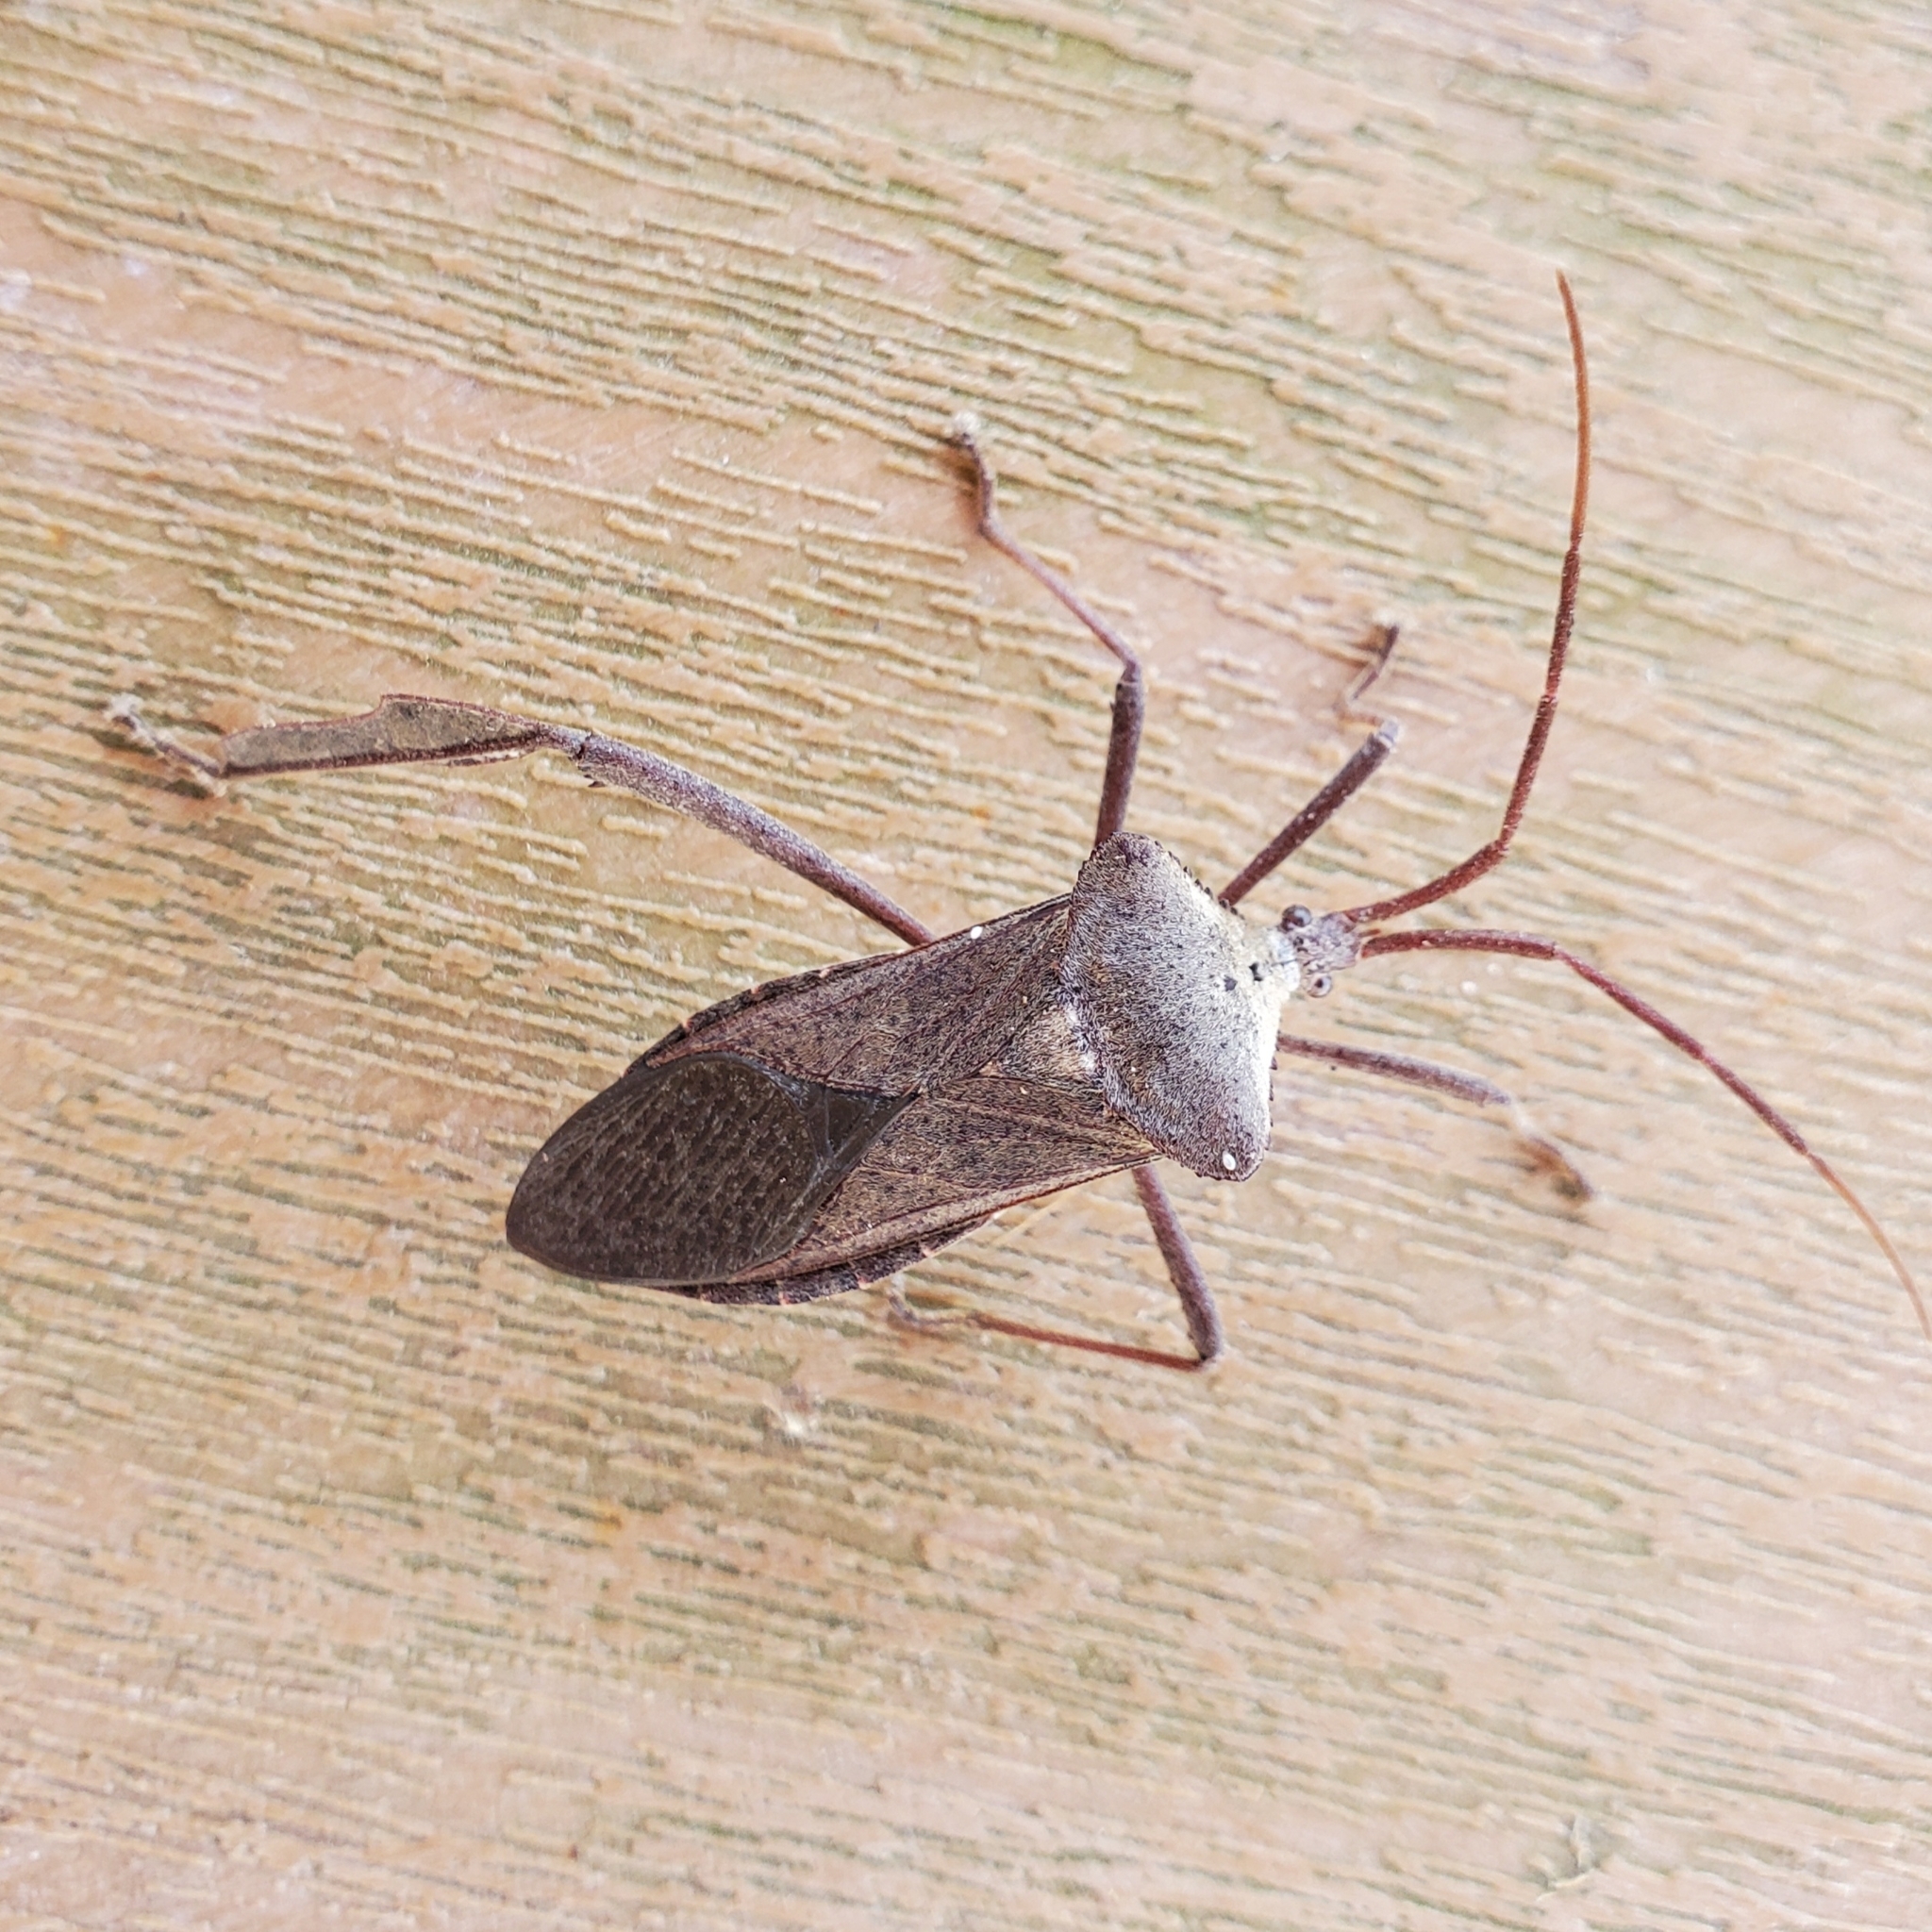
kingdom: Animalia
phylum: Arthropoda
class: Insecta
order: Hemiptera
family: Coreidae
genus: Acanthocephala
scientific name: Acanthocephala declivis
